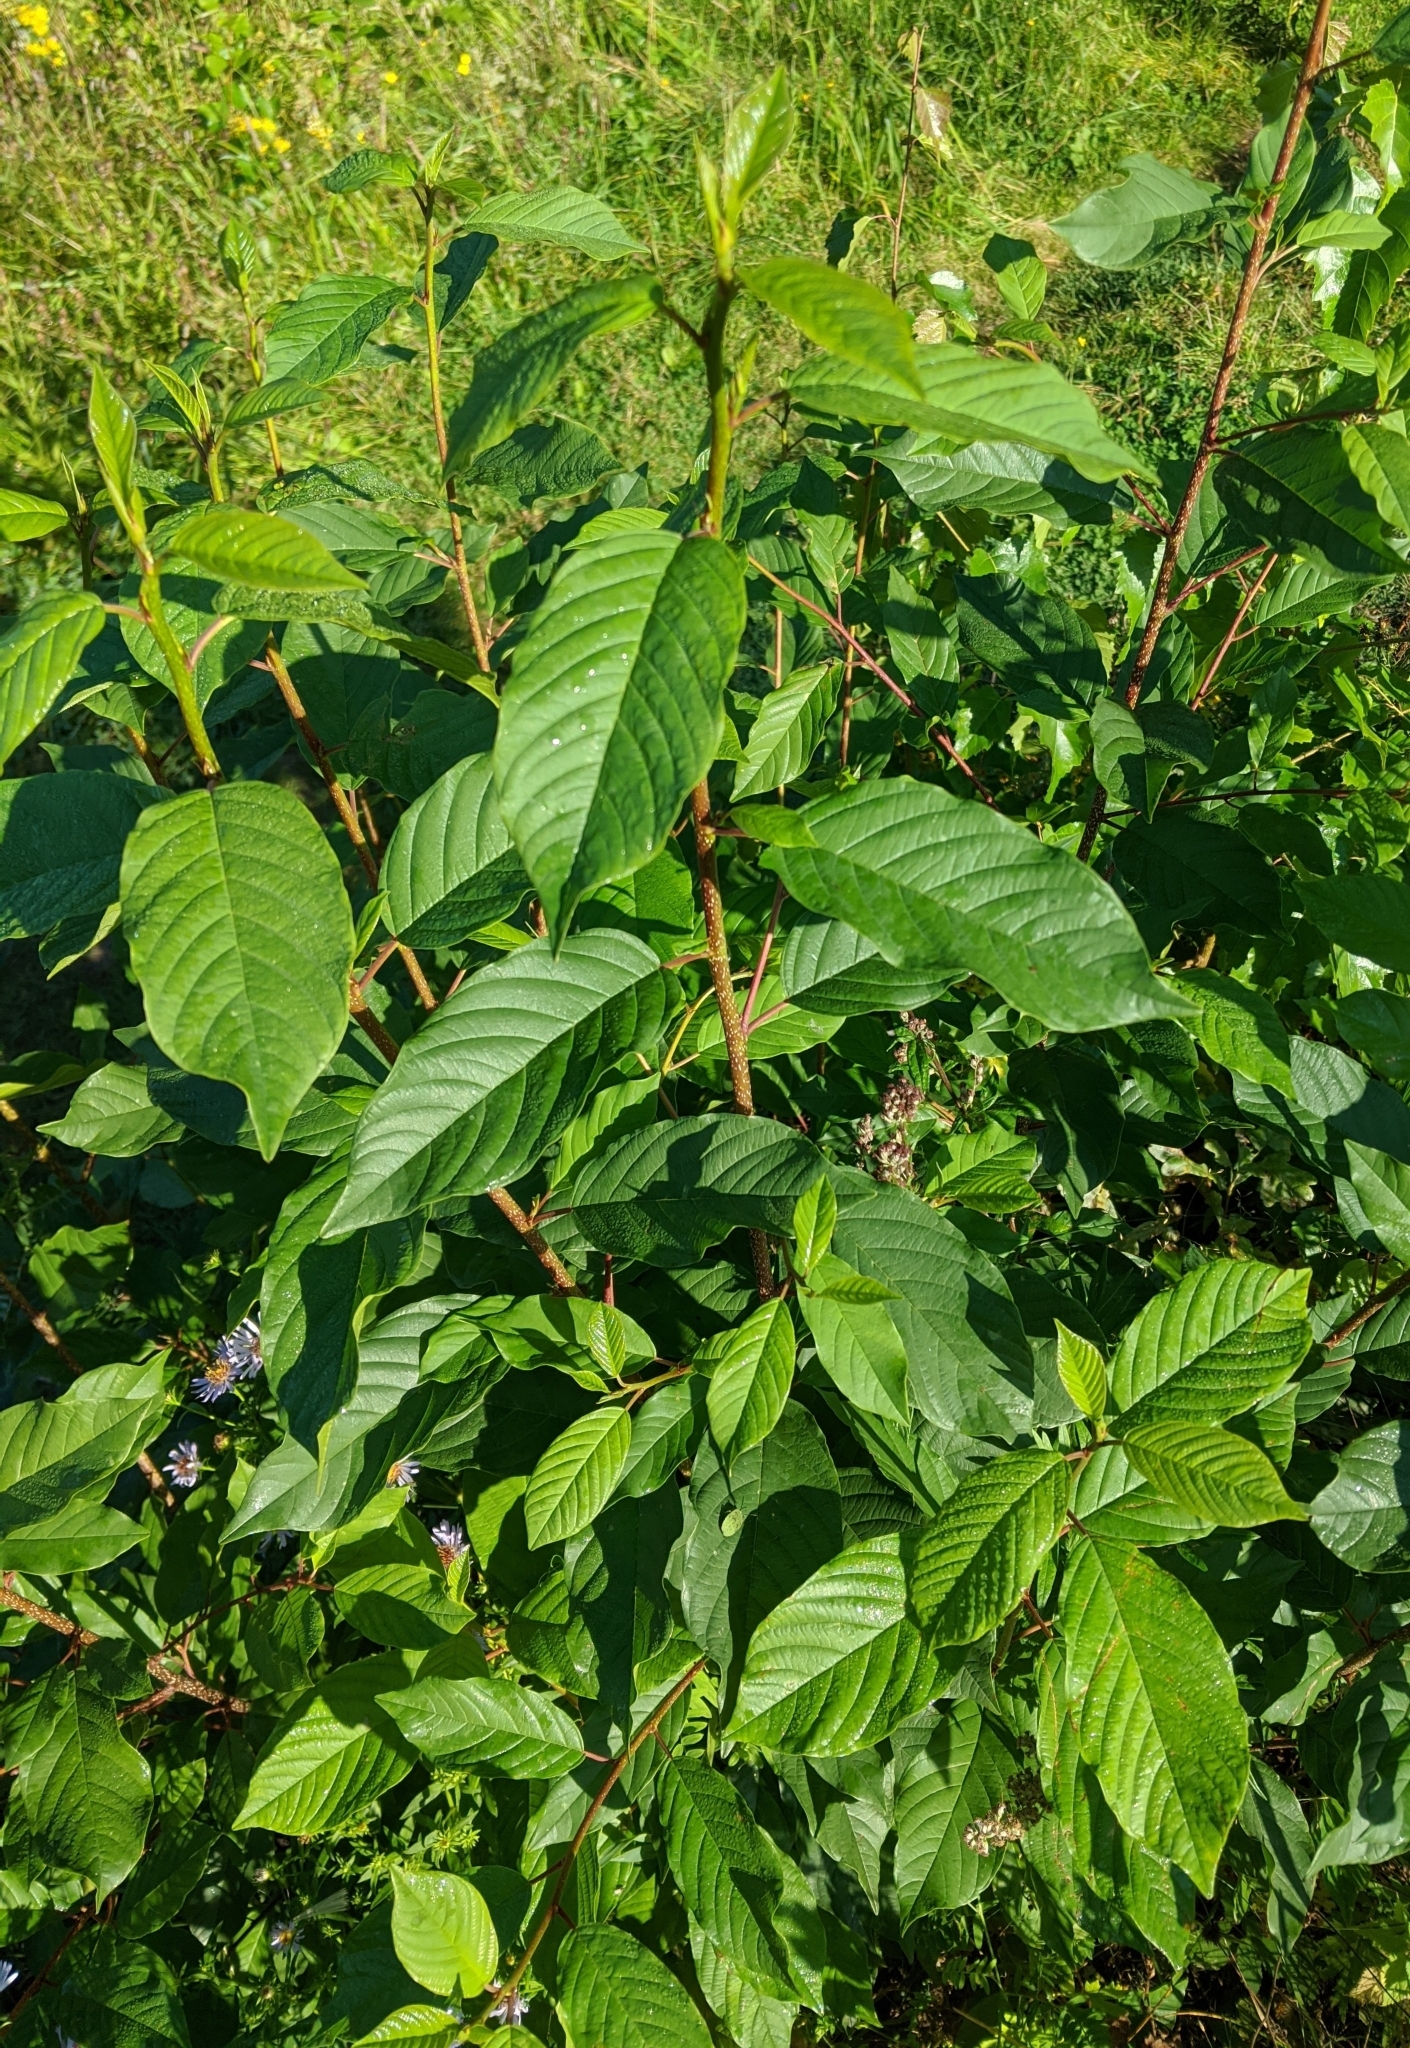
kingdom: Plantae
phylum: Tracheophyta
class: Magnoliopsida
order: Rosales
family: Rhamnaceae
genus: Frangula
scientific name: Frangula alnus
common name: Alder buckthorn
